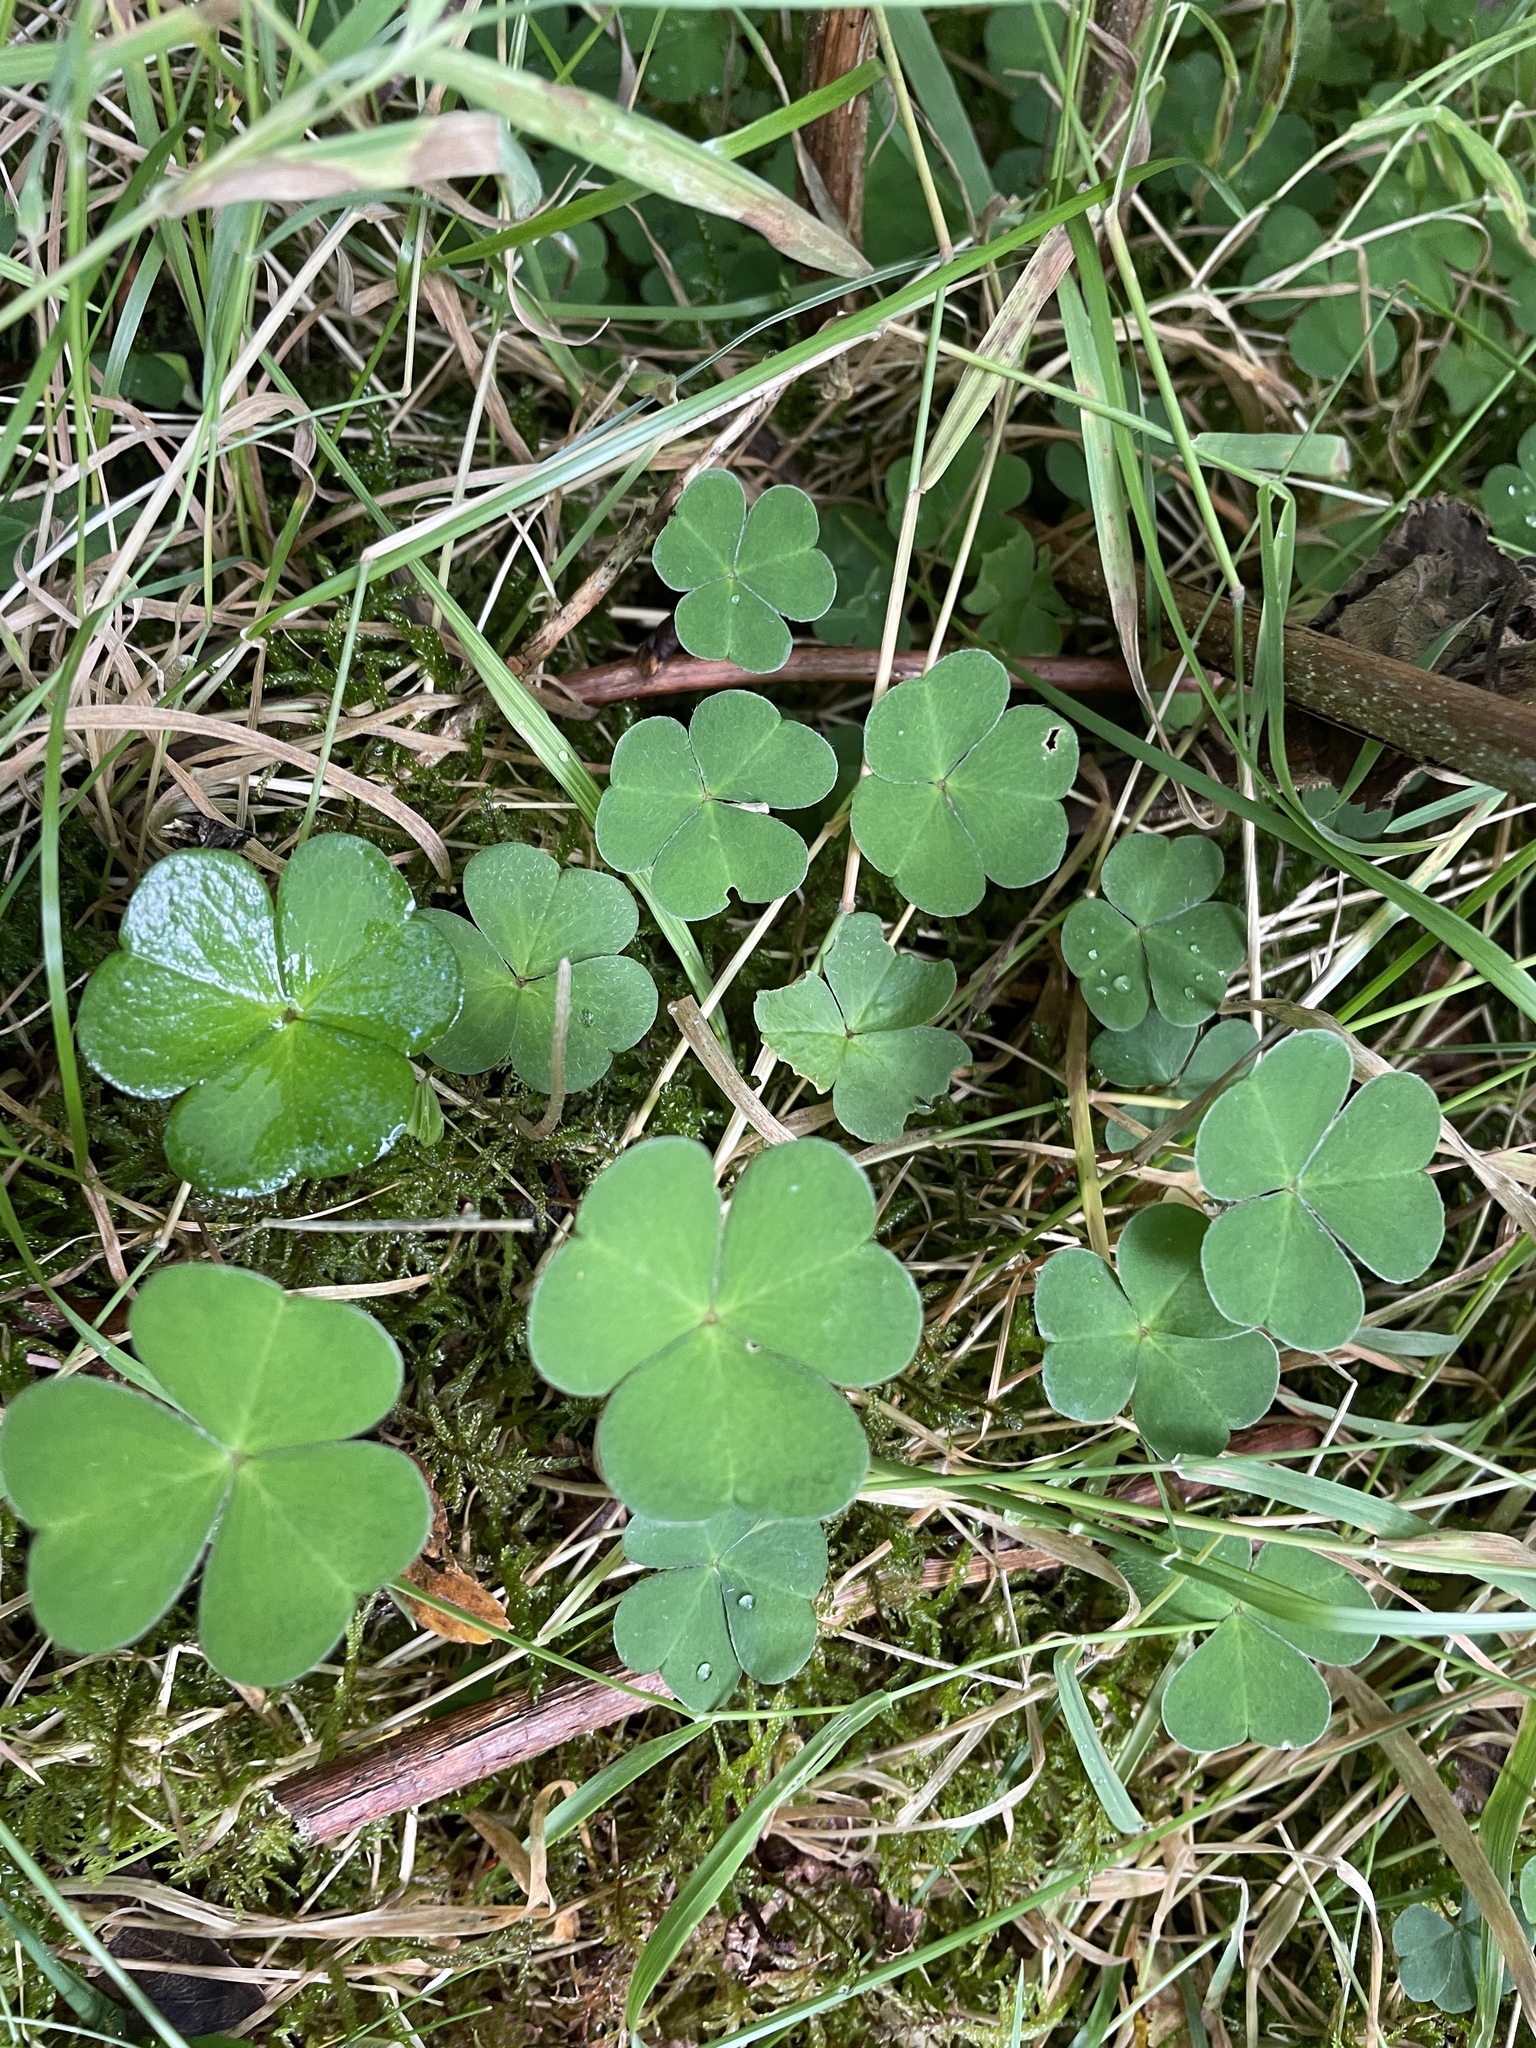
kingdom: Plantae
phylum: Tracheophyta
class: Magnoliopsida
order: Oxalidales
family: Oxalidaceae
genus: Oxalis
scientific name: Oxalis acetosella
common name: Wood-sorrel
